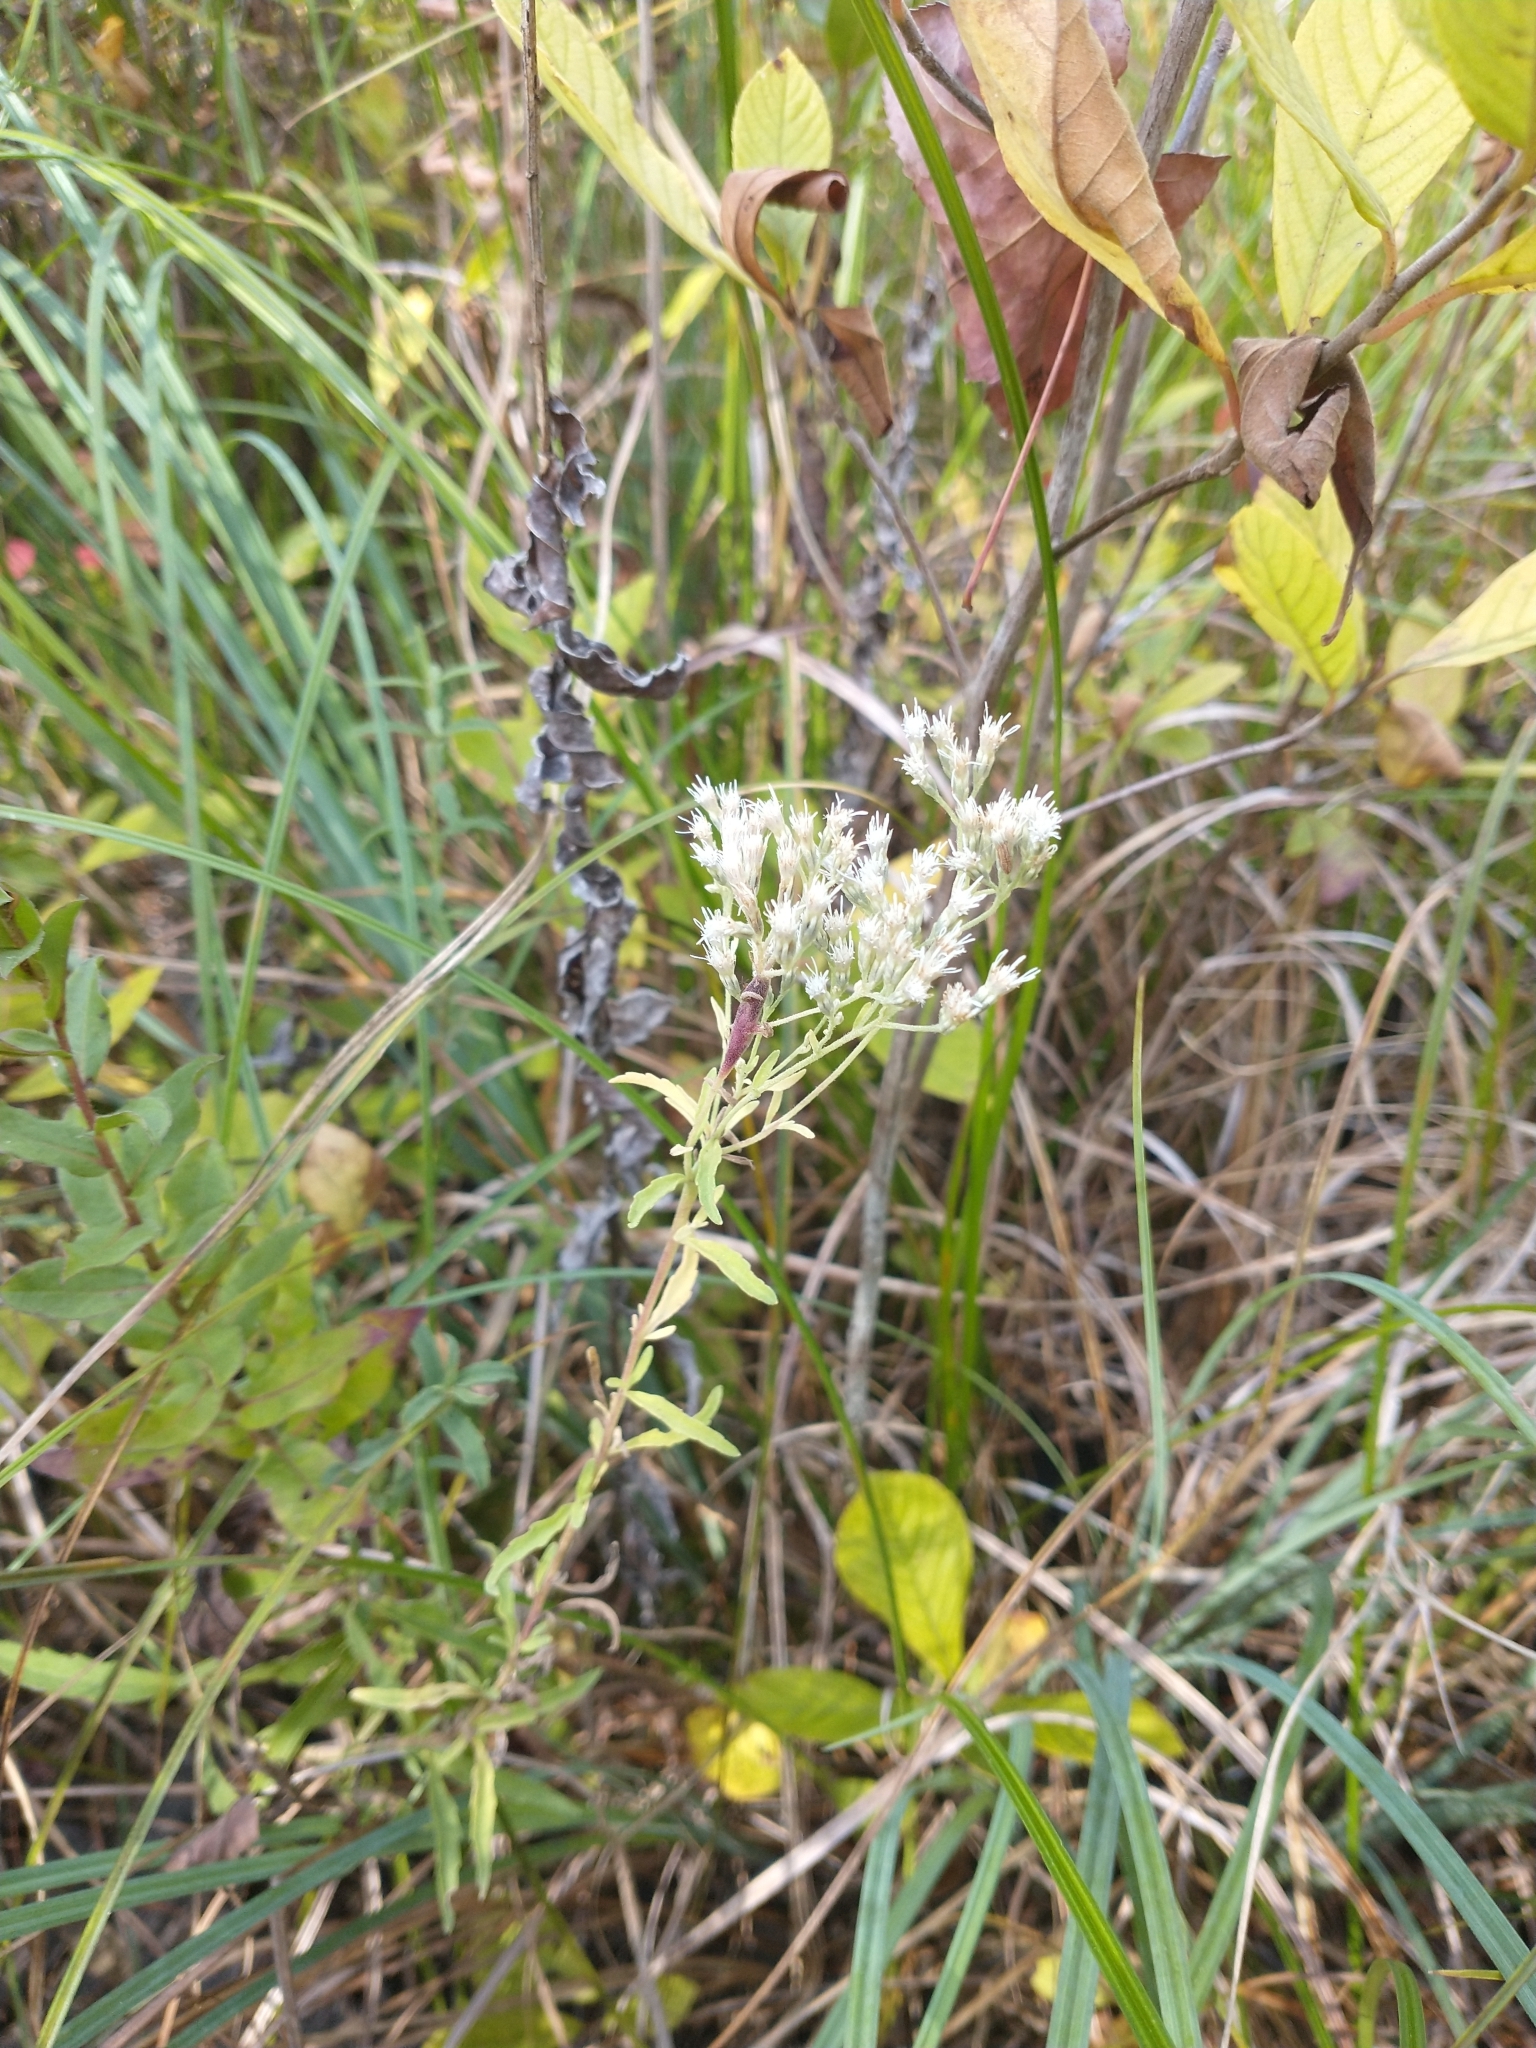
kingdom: Plantae
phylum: Tracheophyta
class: Magnoliopsida
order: Asterales
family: Asteraceae
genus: Eupatorium
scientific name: Eupatorium mohrii
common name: Mohr's thoroughwort
